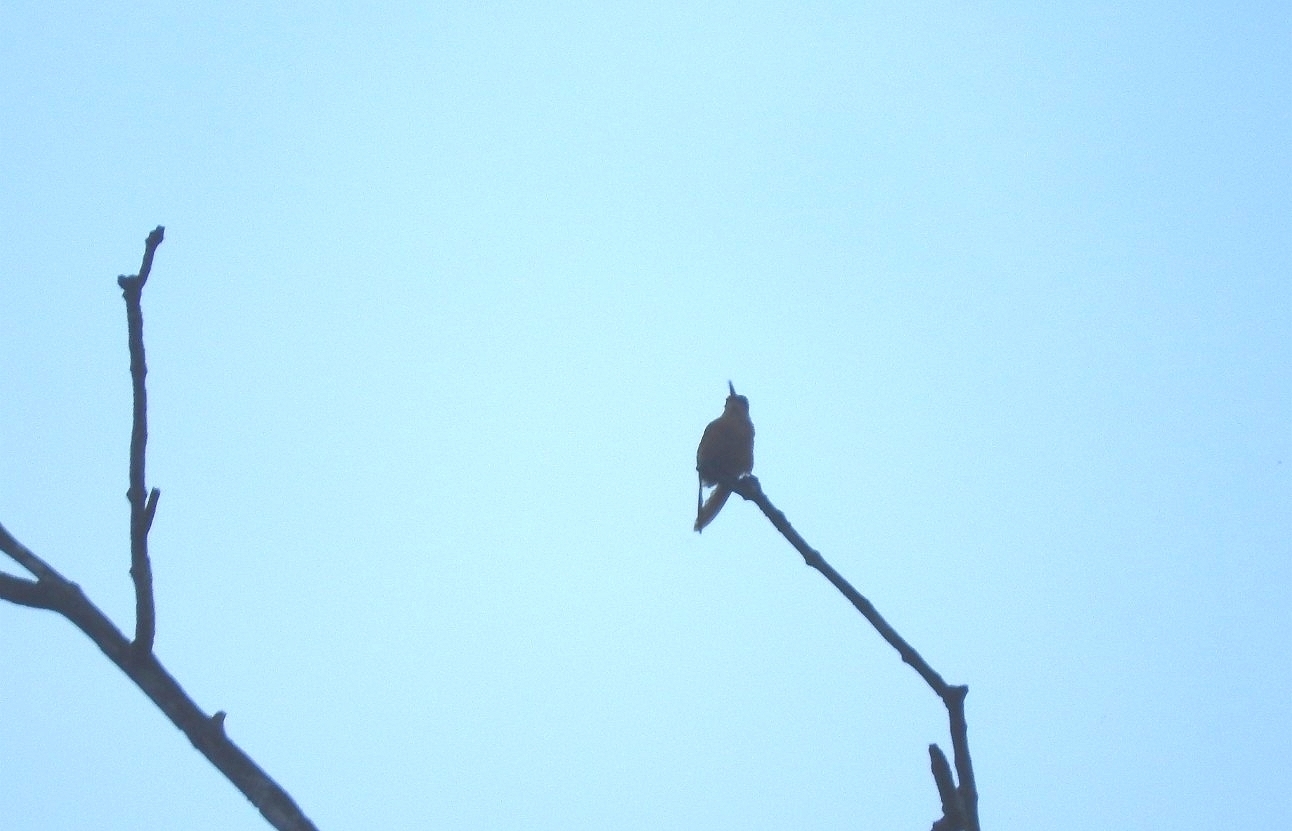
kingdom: Animalia
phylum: Chordata
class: Aves
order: Apodiformes
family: Trochilidae
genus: Amazilia
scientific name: Amazilia rutila
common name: Cinnamon hummingbird
